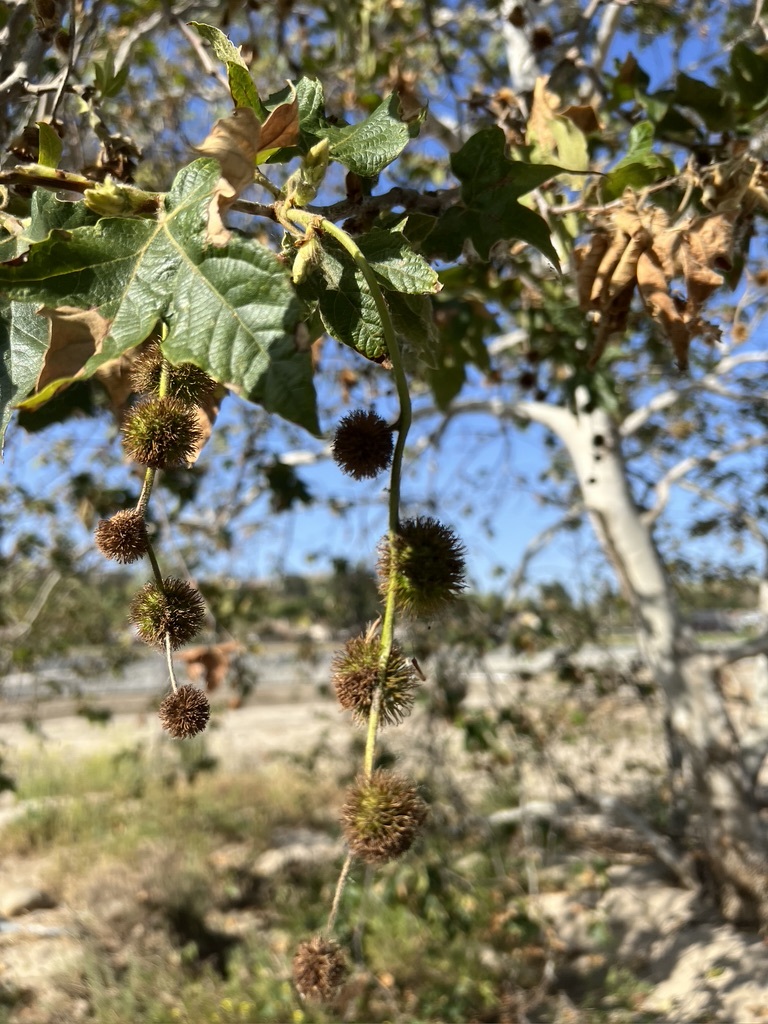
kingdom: Plantae
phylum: Tracheophyta
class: Magnoliopsida
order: Proteales
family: Platanaceae
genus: Platanus
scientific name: Platanus racemosa
